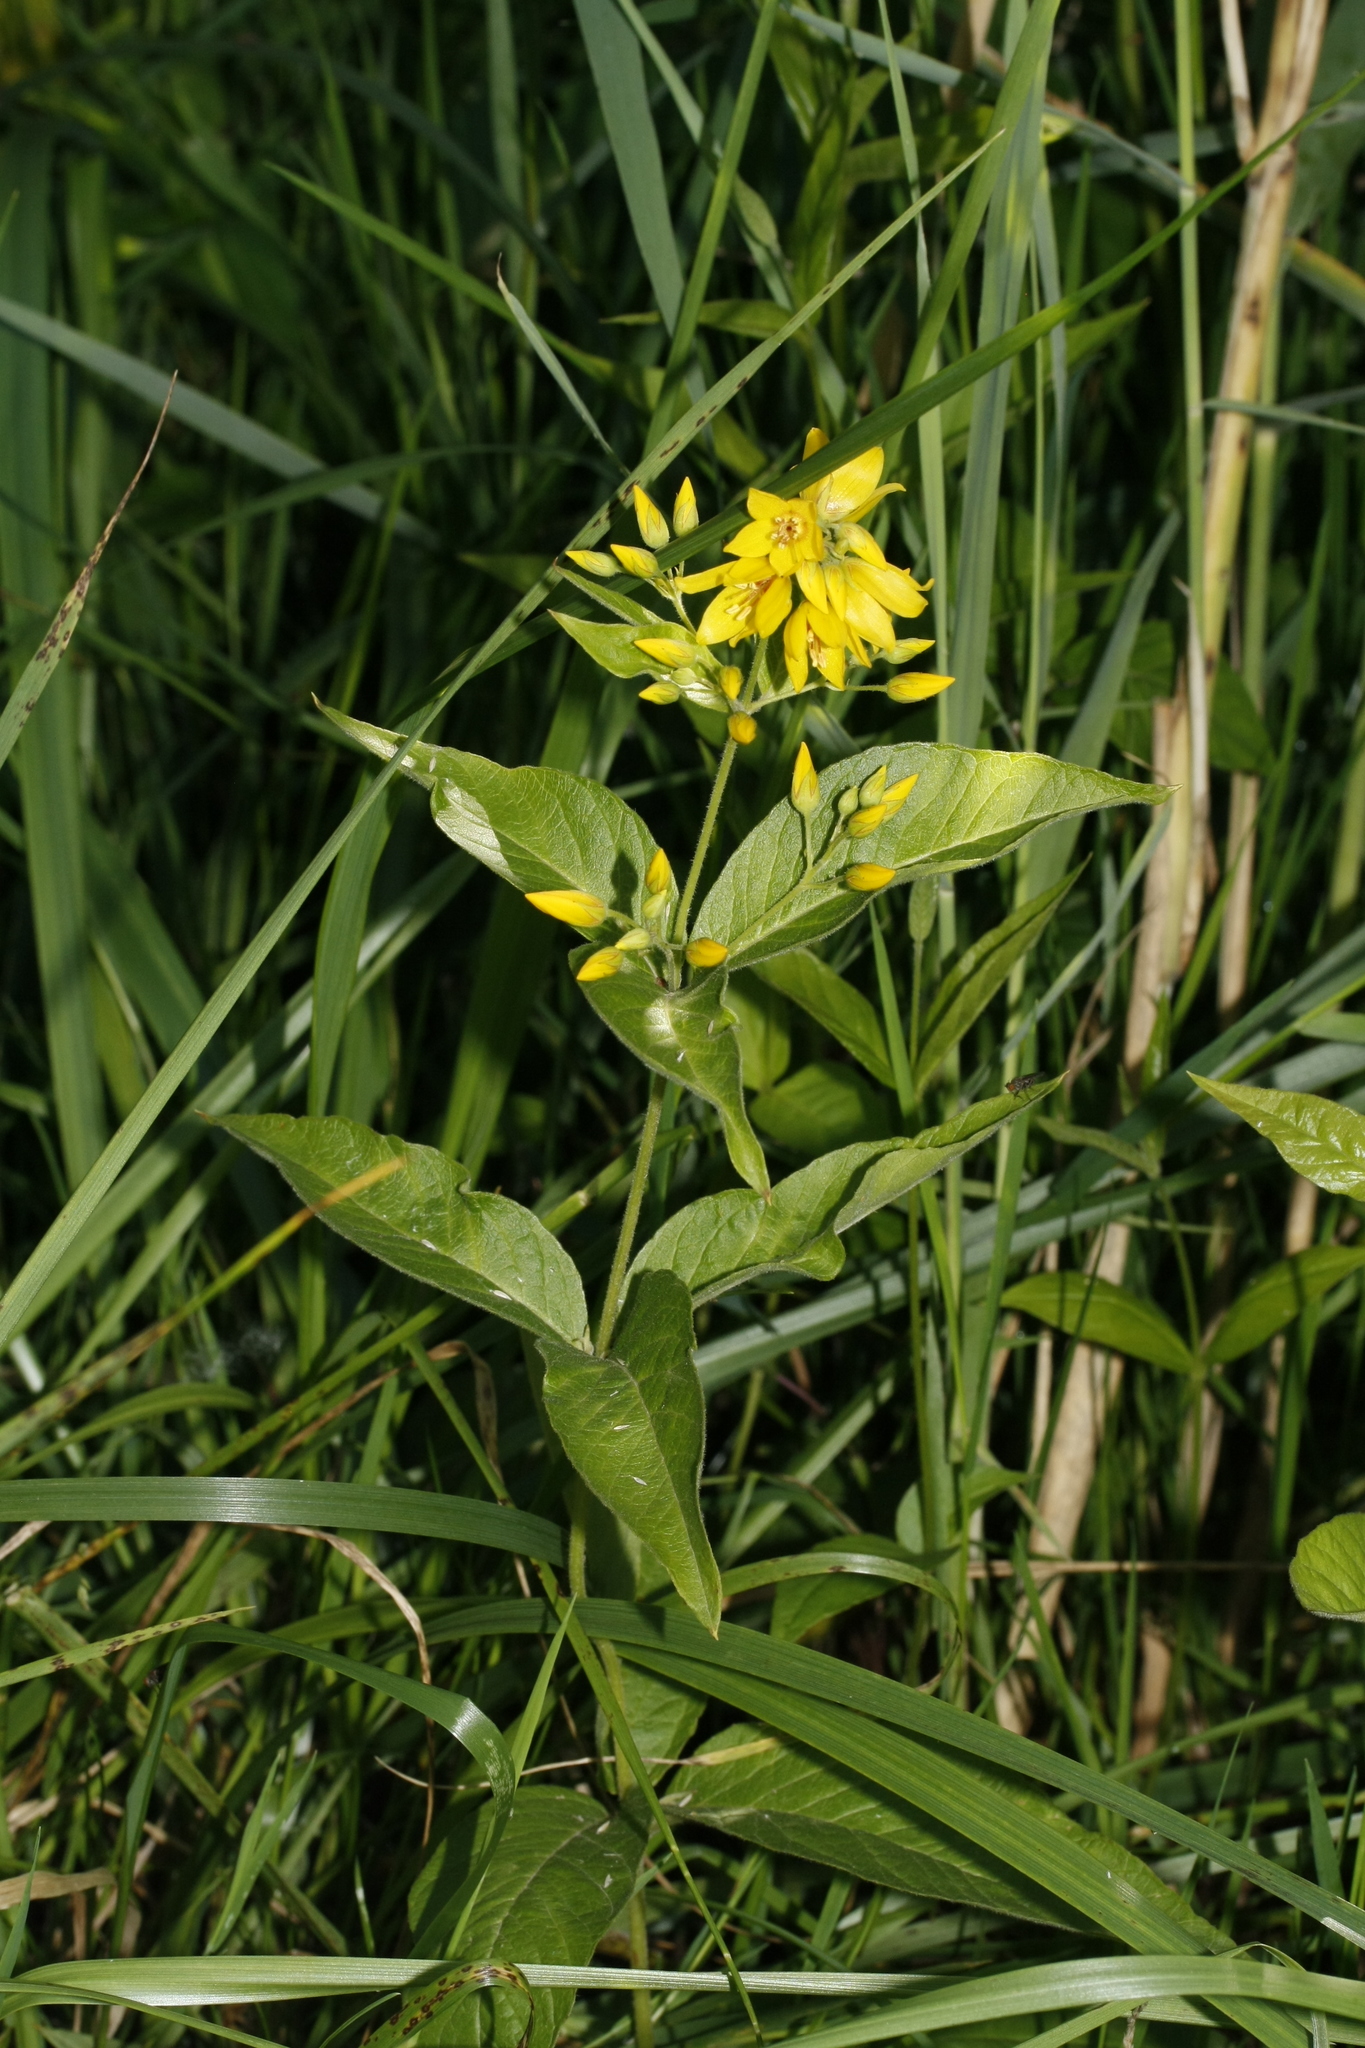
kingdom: Plantae
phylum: Tracheophyta
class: Magnoliopsida
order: Ericales
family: Primulaceae
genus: Lysimachia
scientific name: Lysimachia vulgaris
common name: Yellow loosestrife
